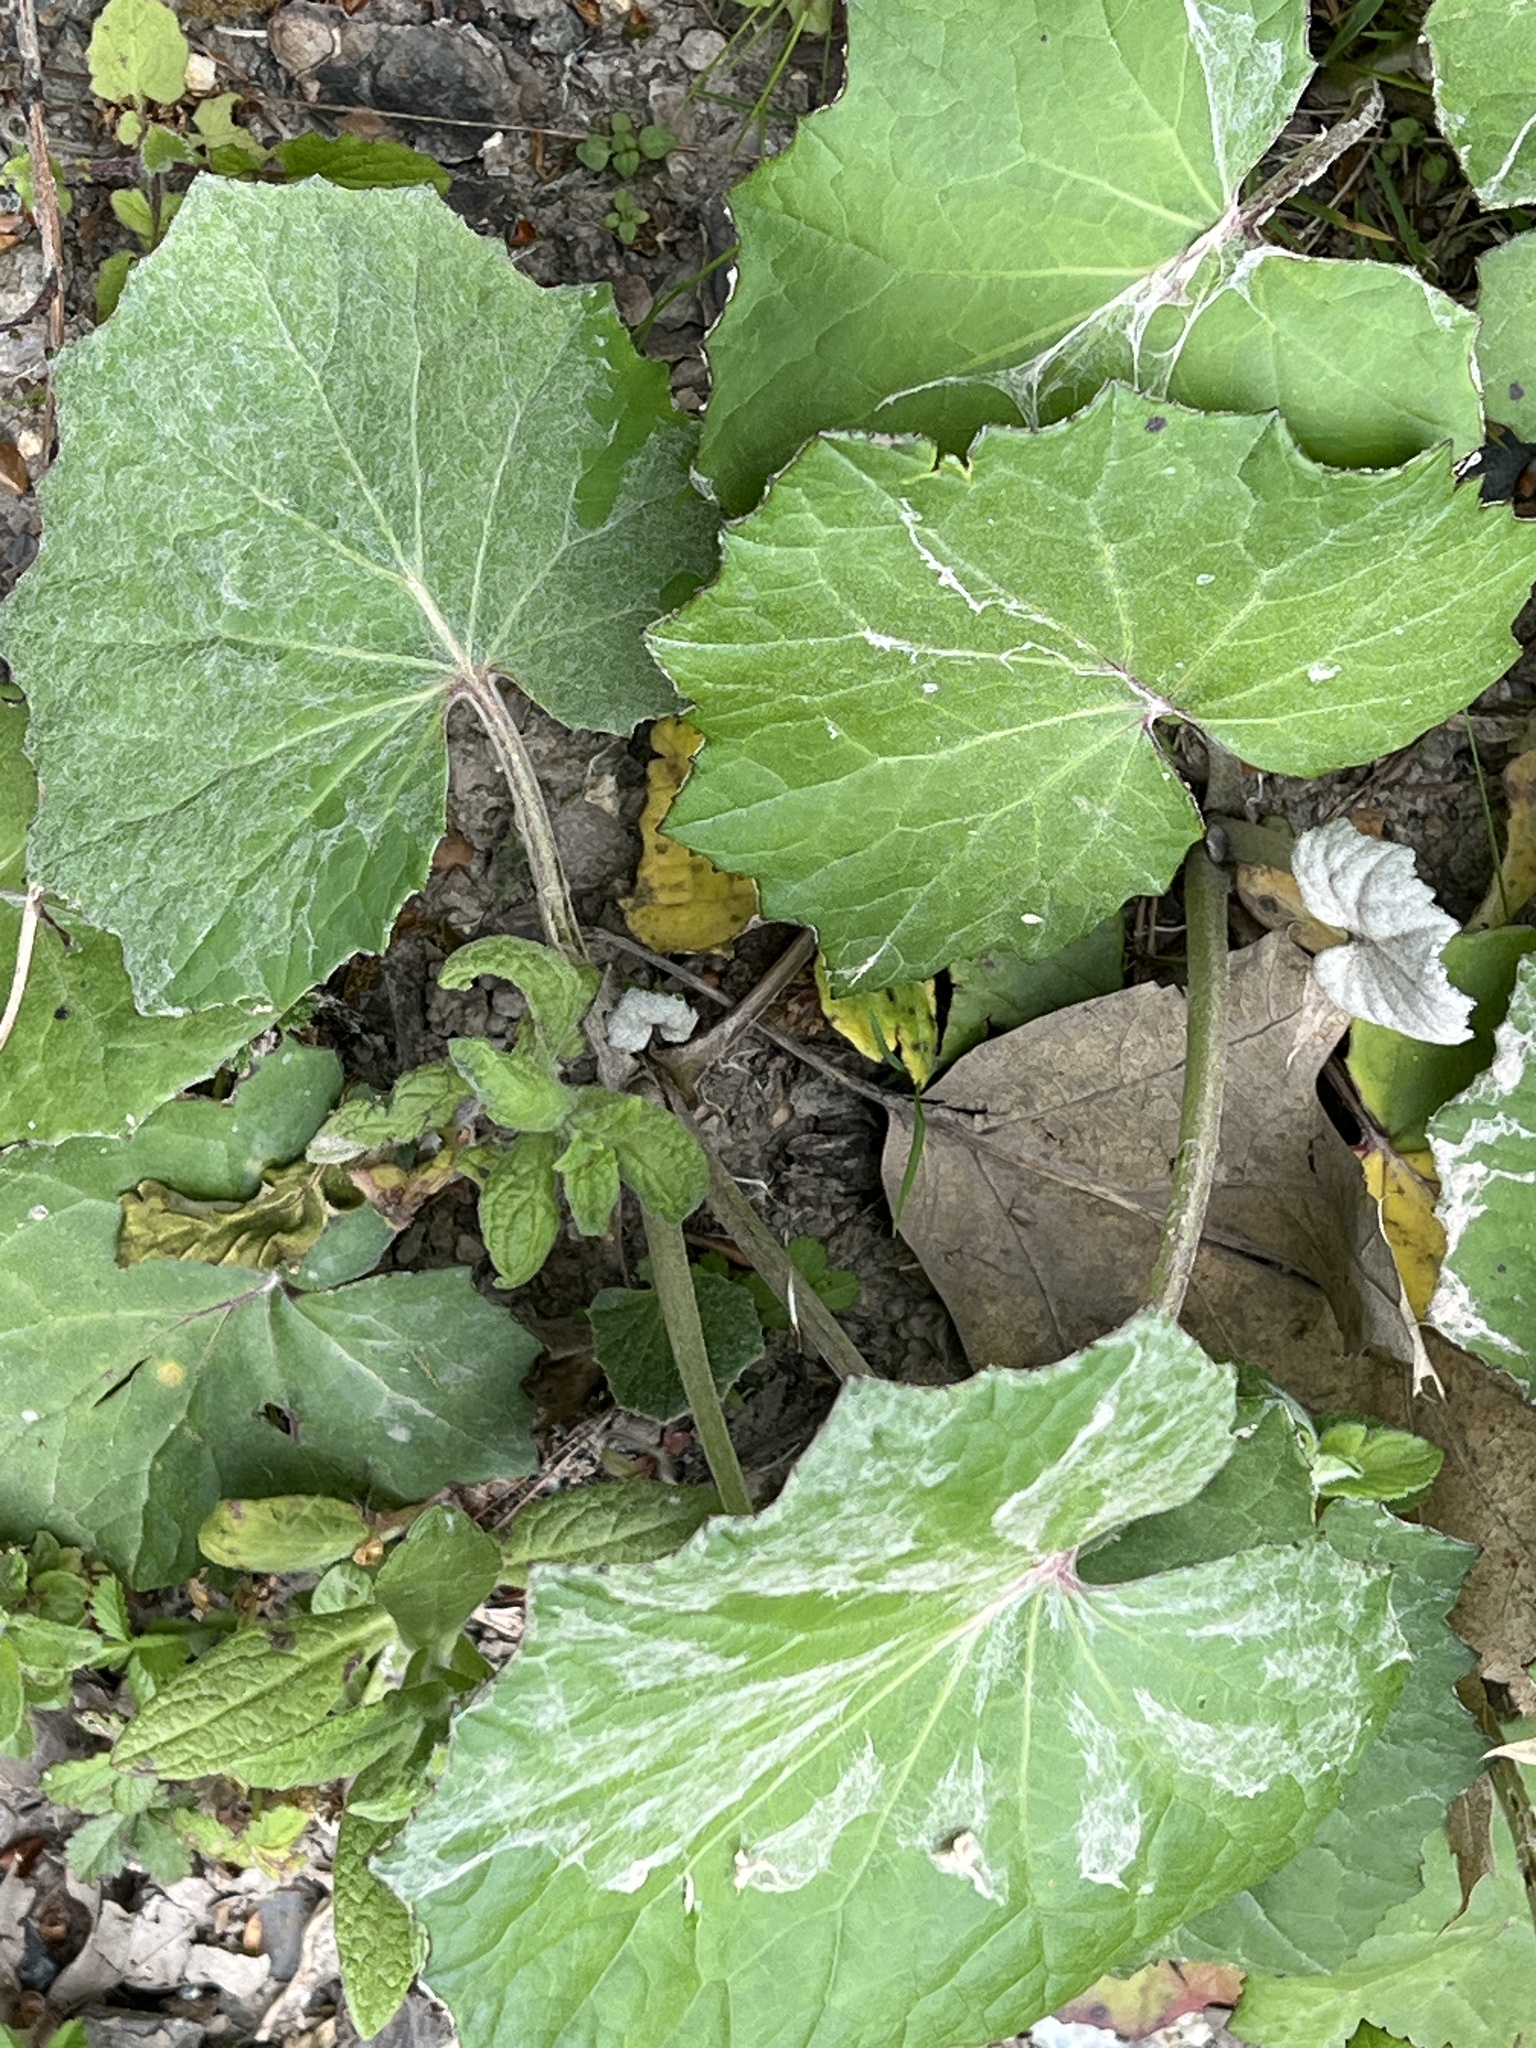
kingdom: Plantae
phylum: Tracheophyta
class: Magnoliopsida
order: Asterales
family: Asteraceae
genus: Tussilago
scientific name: Tussilago farfara
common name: Coltsfoot
